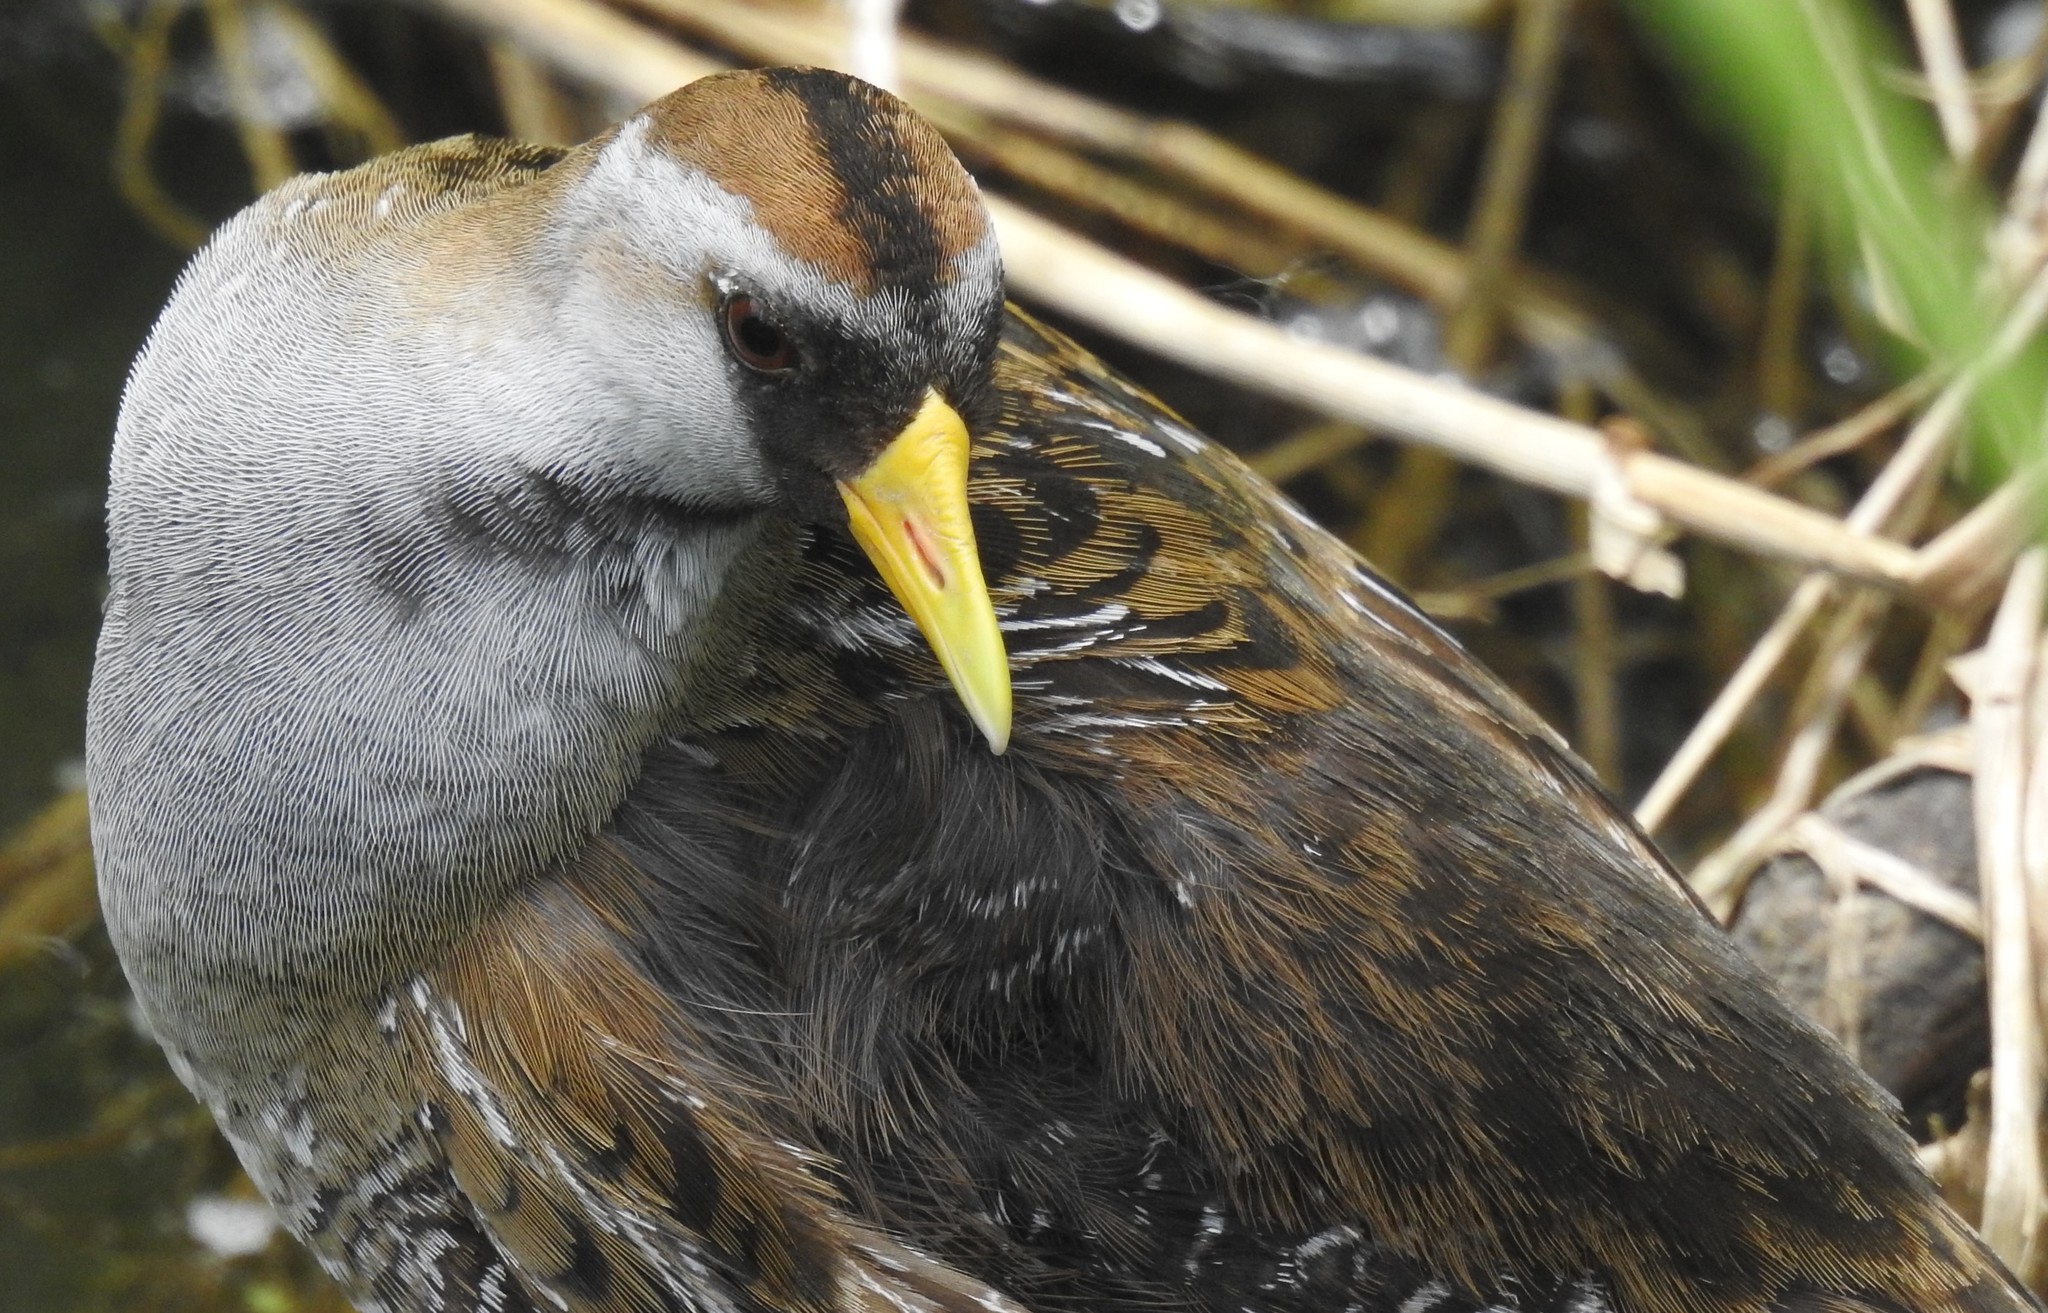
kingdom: Animalia
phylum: Chordata
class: Aves
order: Gruiformes
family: Rallidae
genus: Porzana
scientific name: Porzana carolina
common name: Sora
